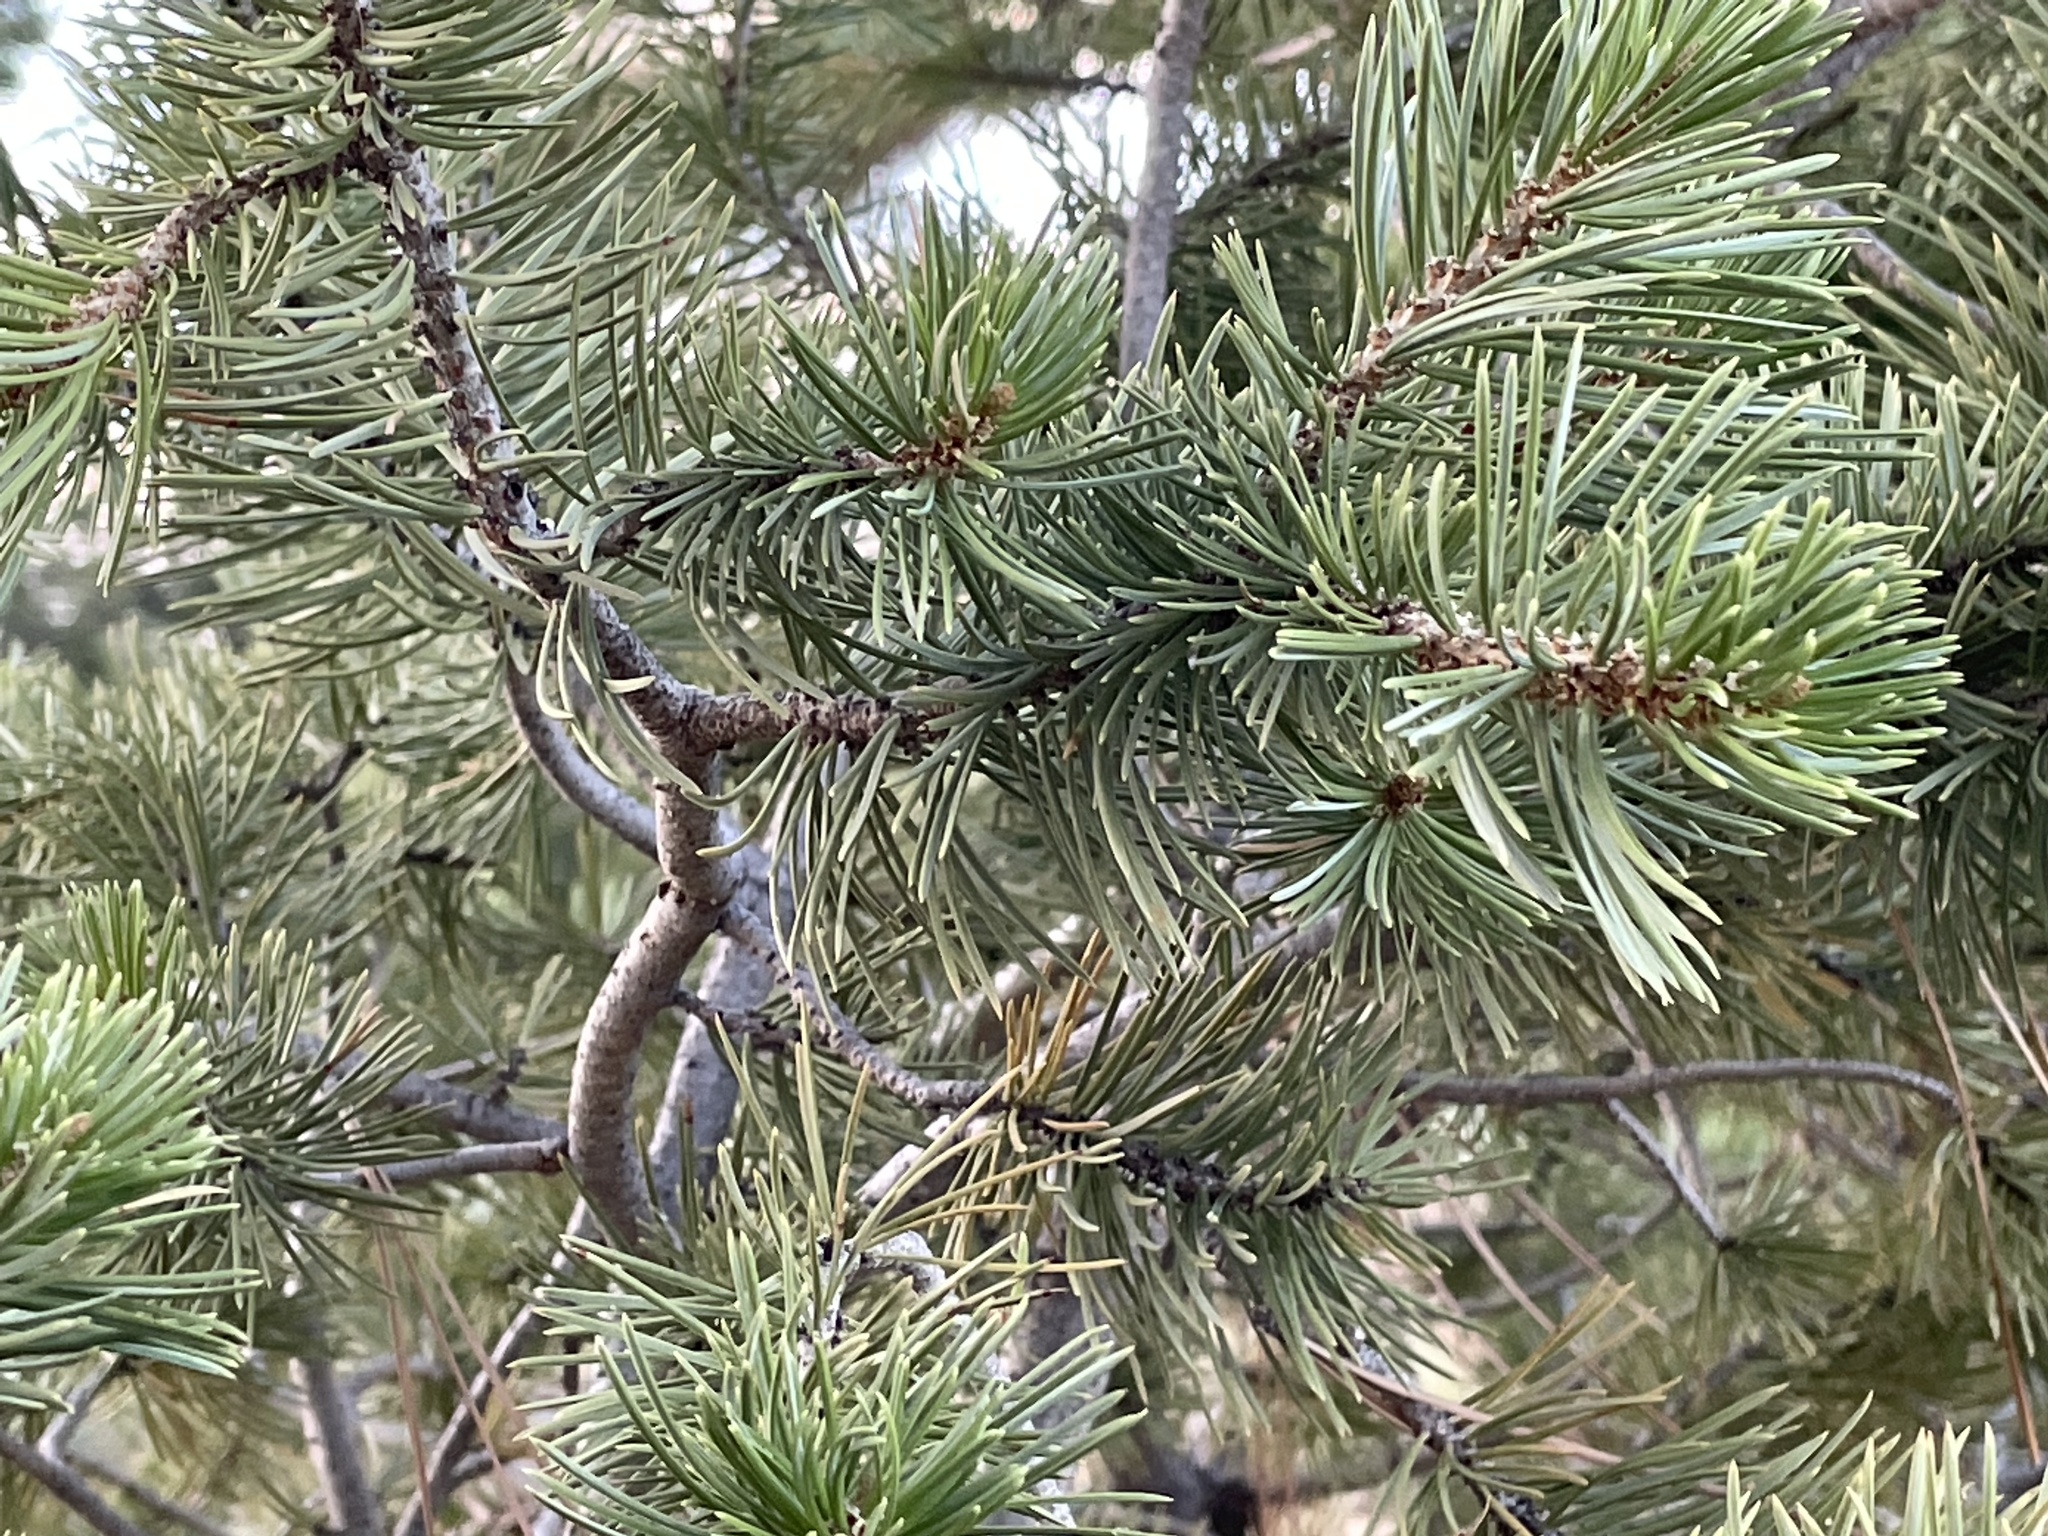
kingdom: Plantae
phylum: Tracheophyta
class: Pinopsida
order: Pinales
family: Pinaceae
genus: Pinus
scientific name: Pinus edulis
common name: Colorado pinyon
